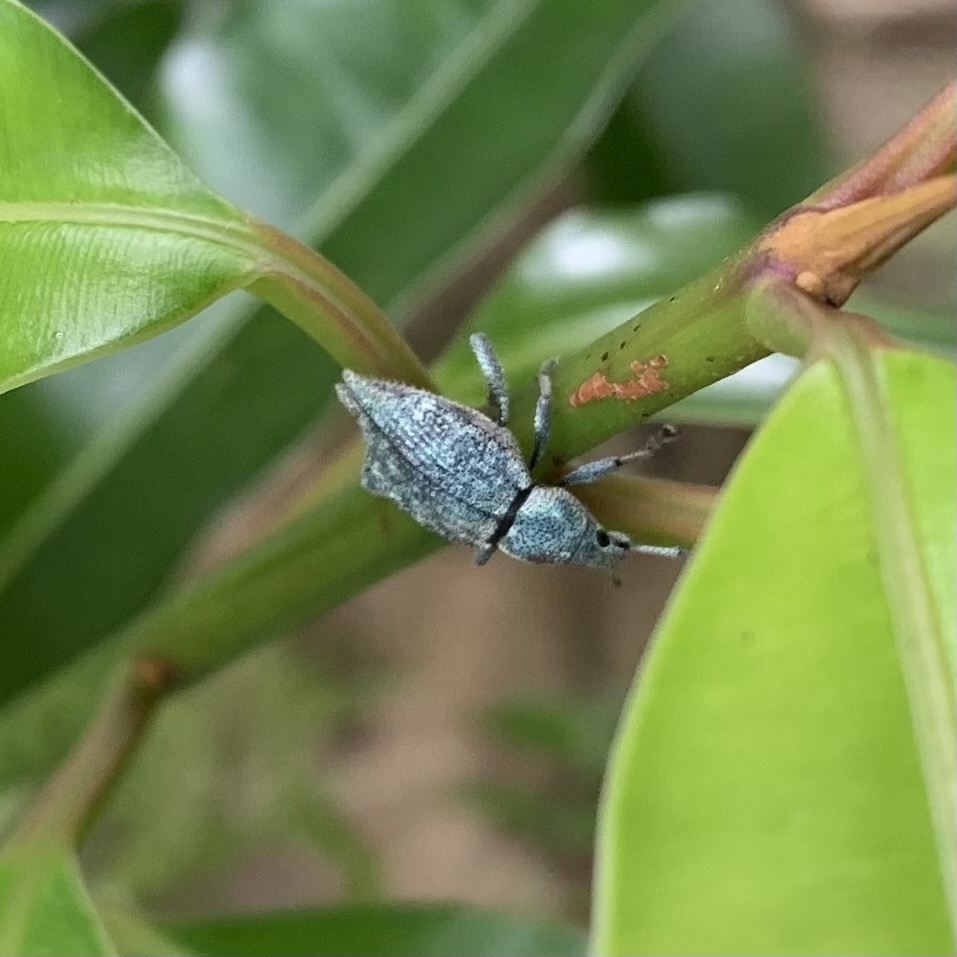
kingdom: Animalia
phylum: Arthropoda
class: Insecta
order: Coleoptera
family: Curculionidae
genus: Elytrurus
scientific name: Elytrurus caudatus
